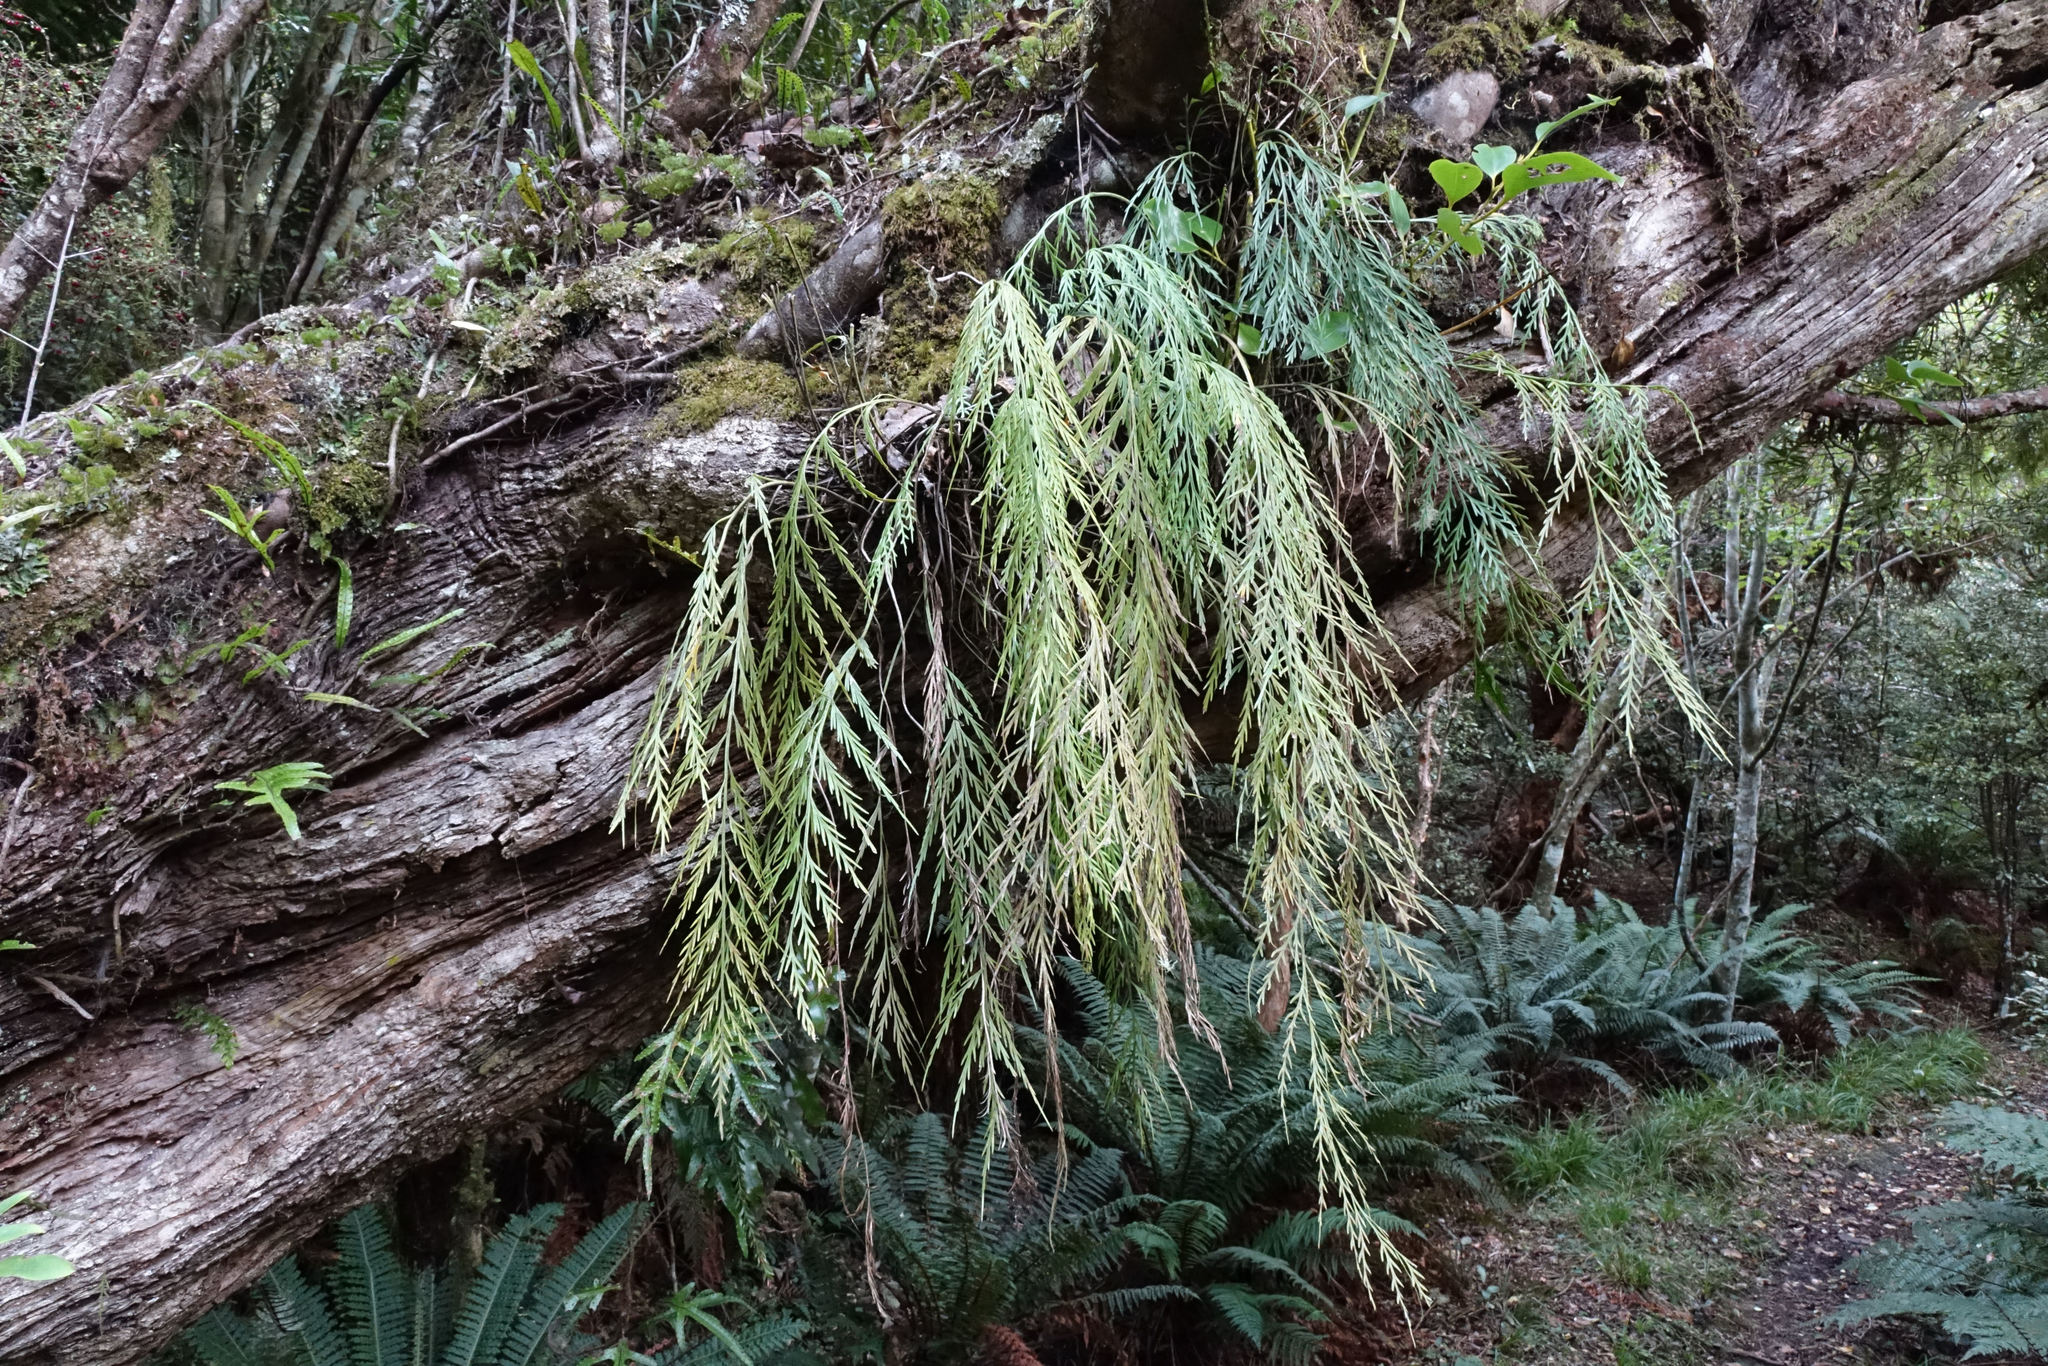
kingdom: Plantae
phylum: Tracheophyta
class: Polypodiopsida
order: Polypodiales
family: Aspleniaceae
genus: Asplenium
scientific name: Asplenium flaccidum
